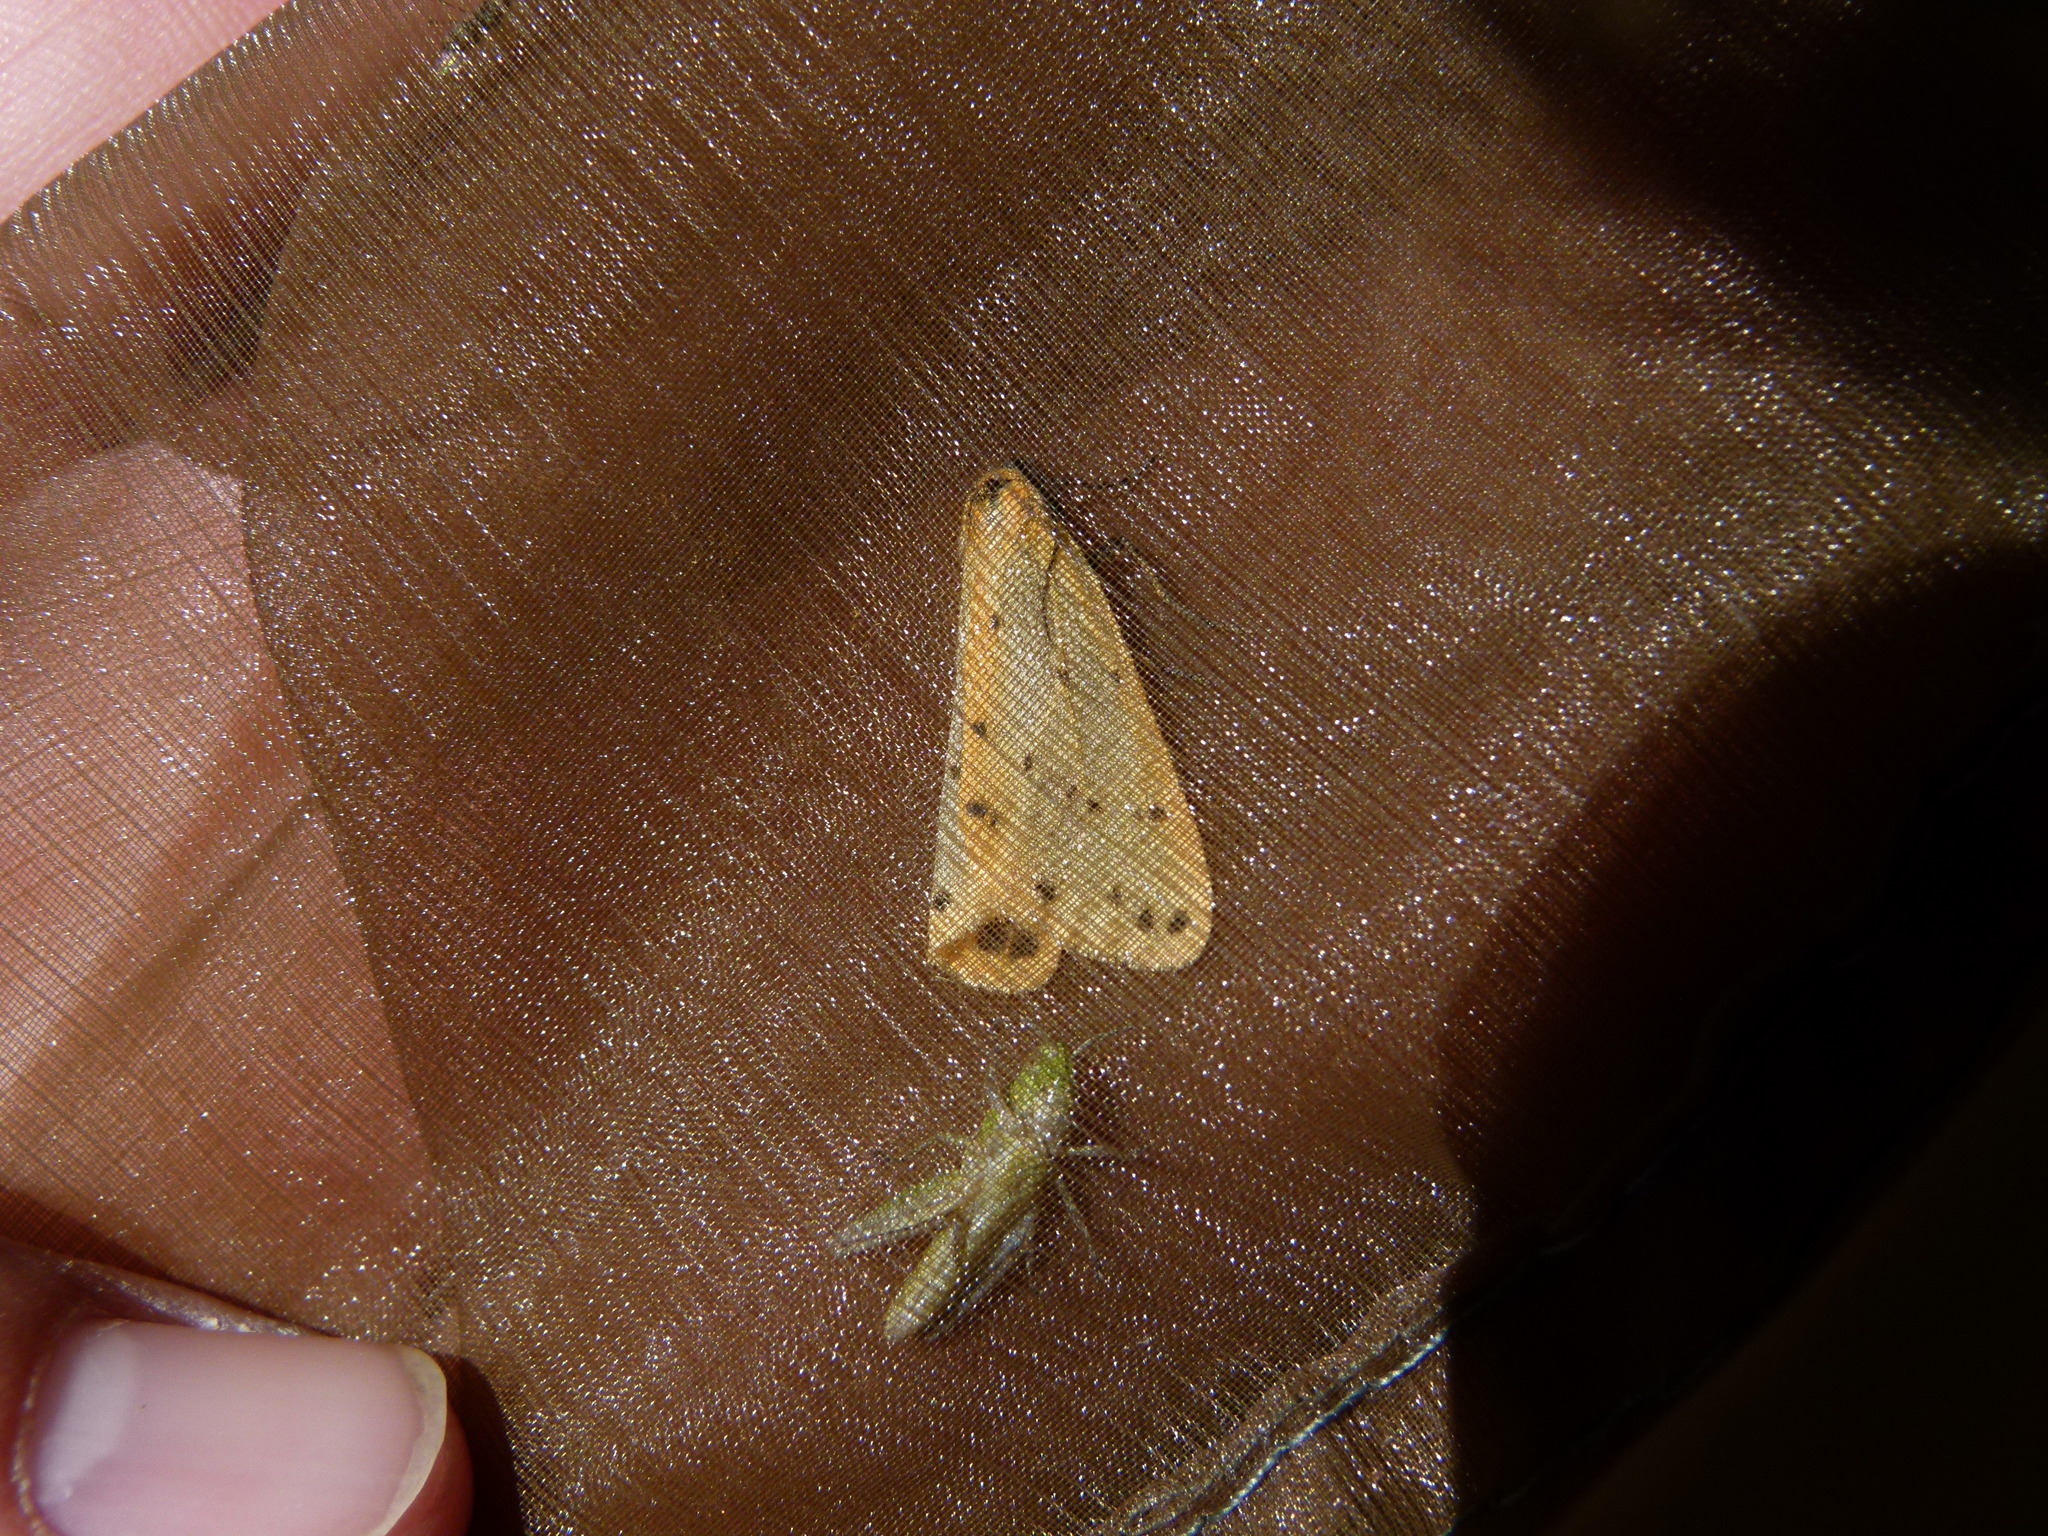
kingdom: Animalia
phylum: Arthropoda
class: Insecta
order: Lepidoptera
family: Erebidae
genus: Setina
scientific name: Setina irrorella
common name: Dew moth
